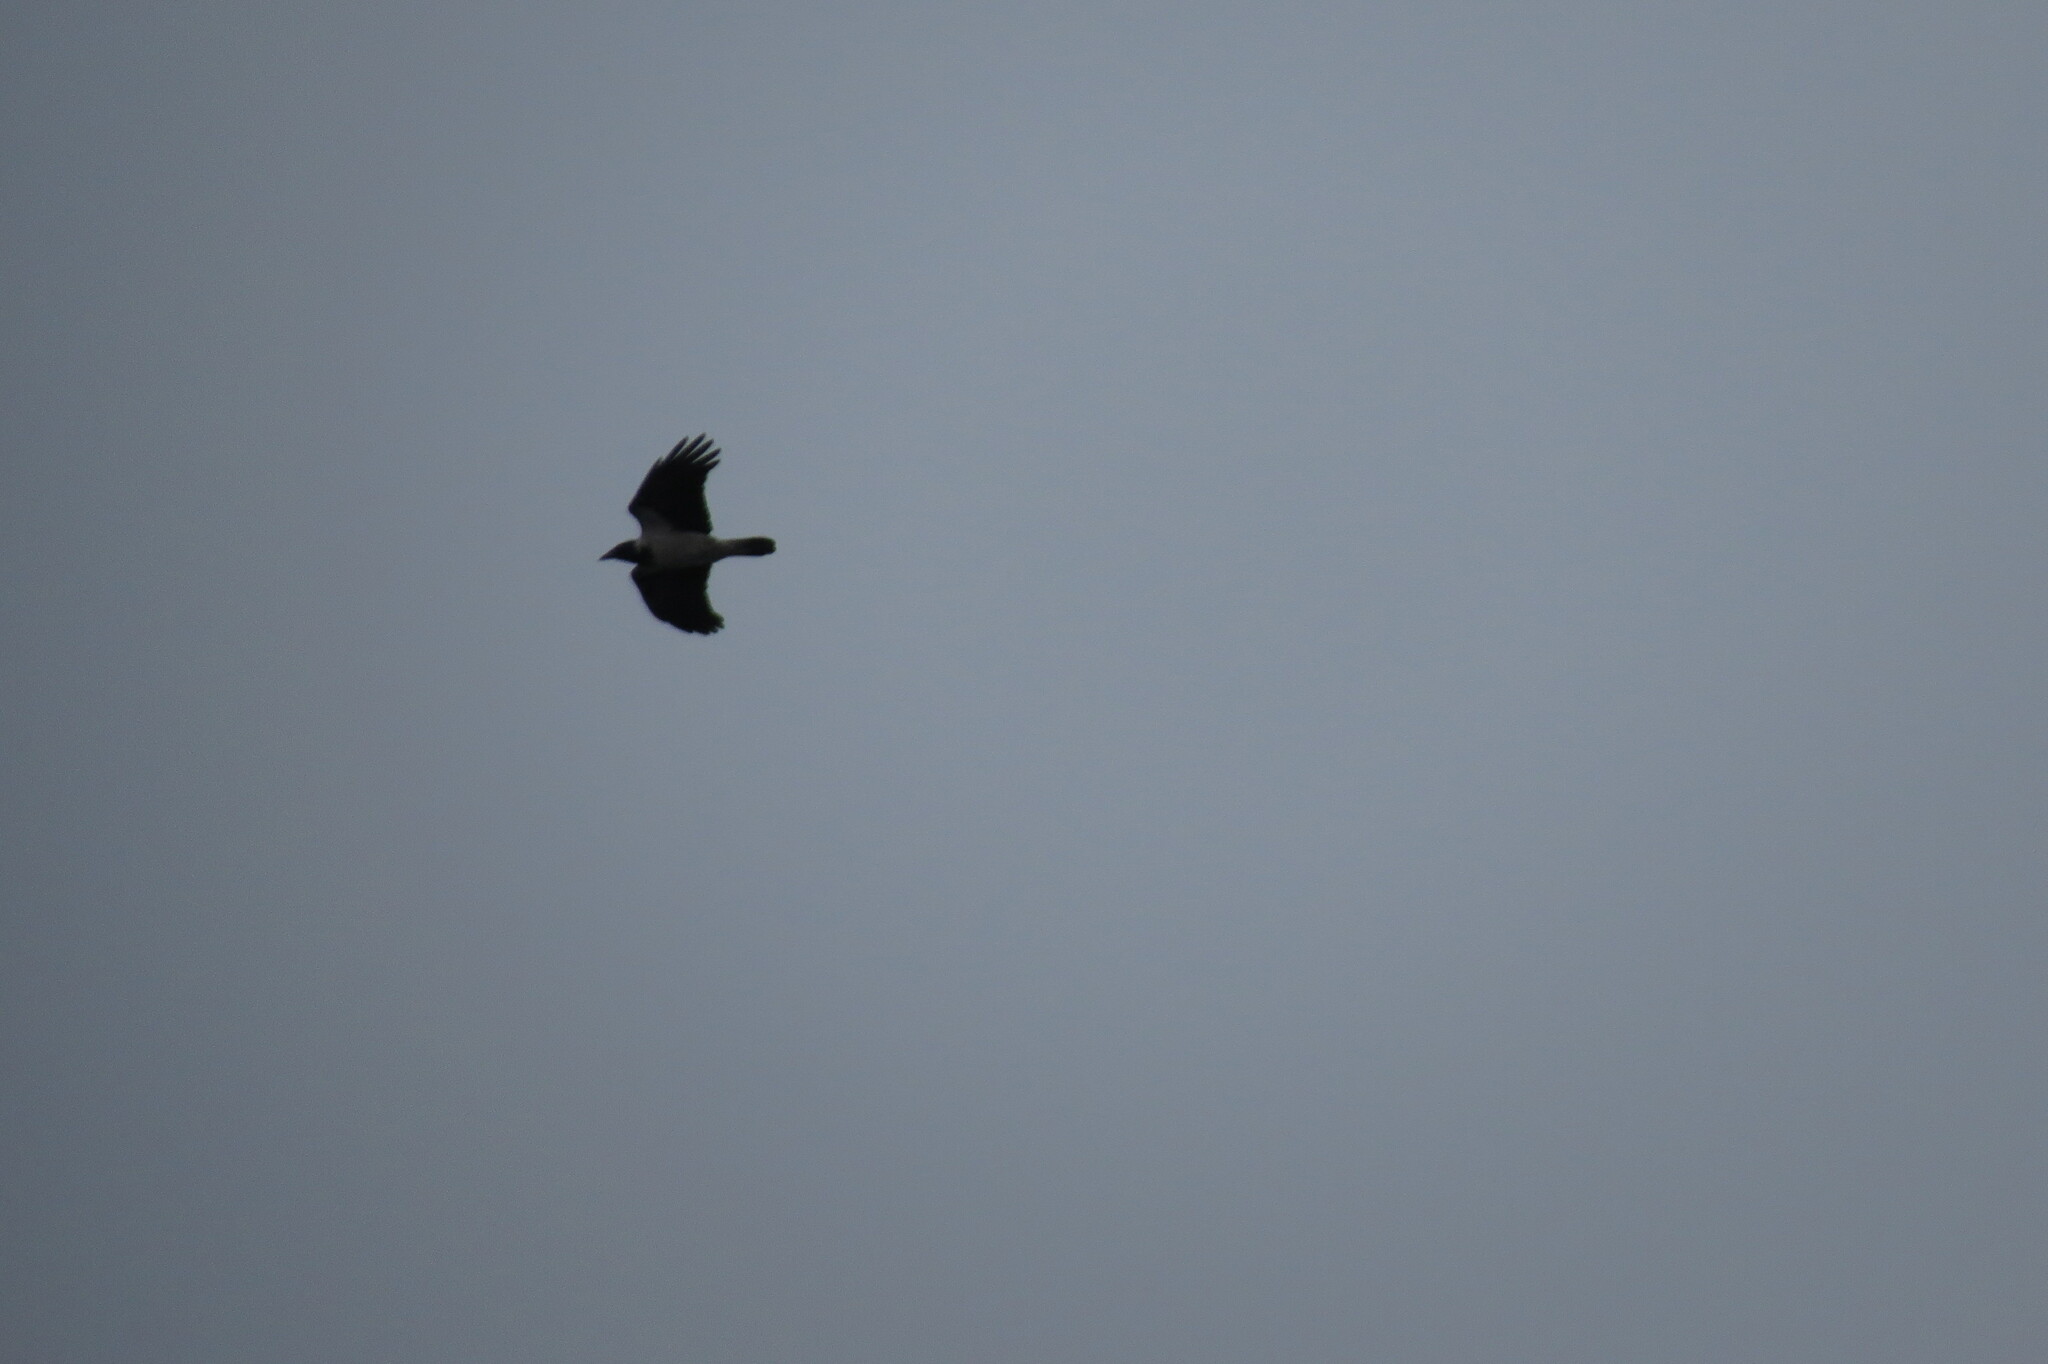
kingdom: Animalia
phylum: Chordata
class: Aves
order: Passeriformes
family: Corvidae
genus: Corvus
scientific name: Corvus cornix
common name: Hooded crow
